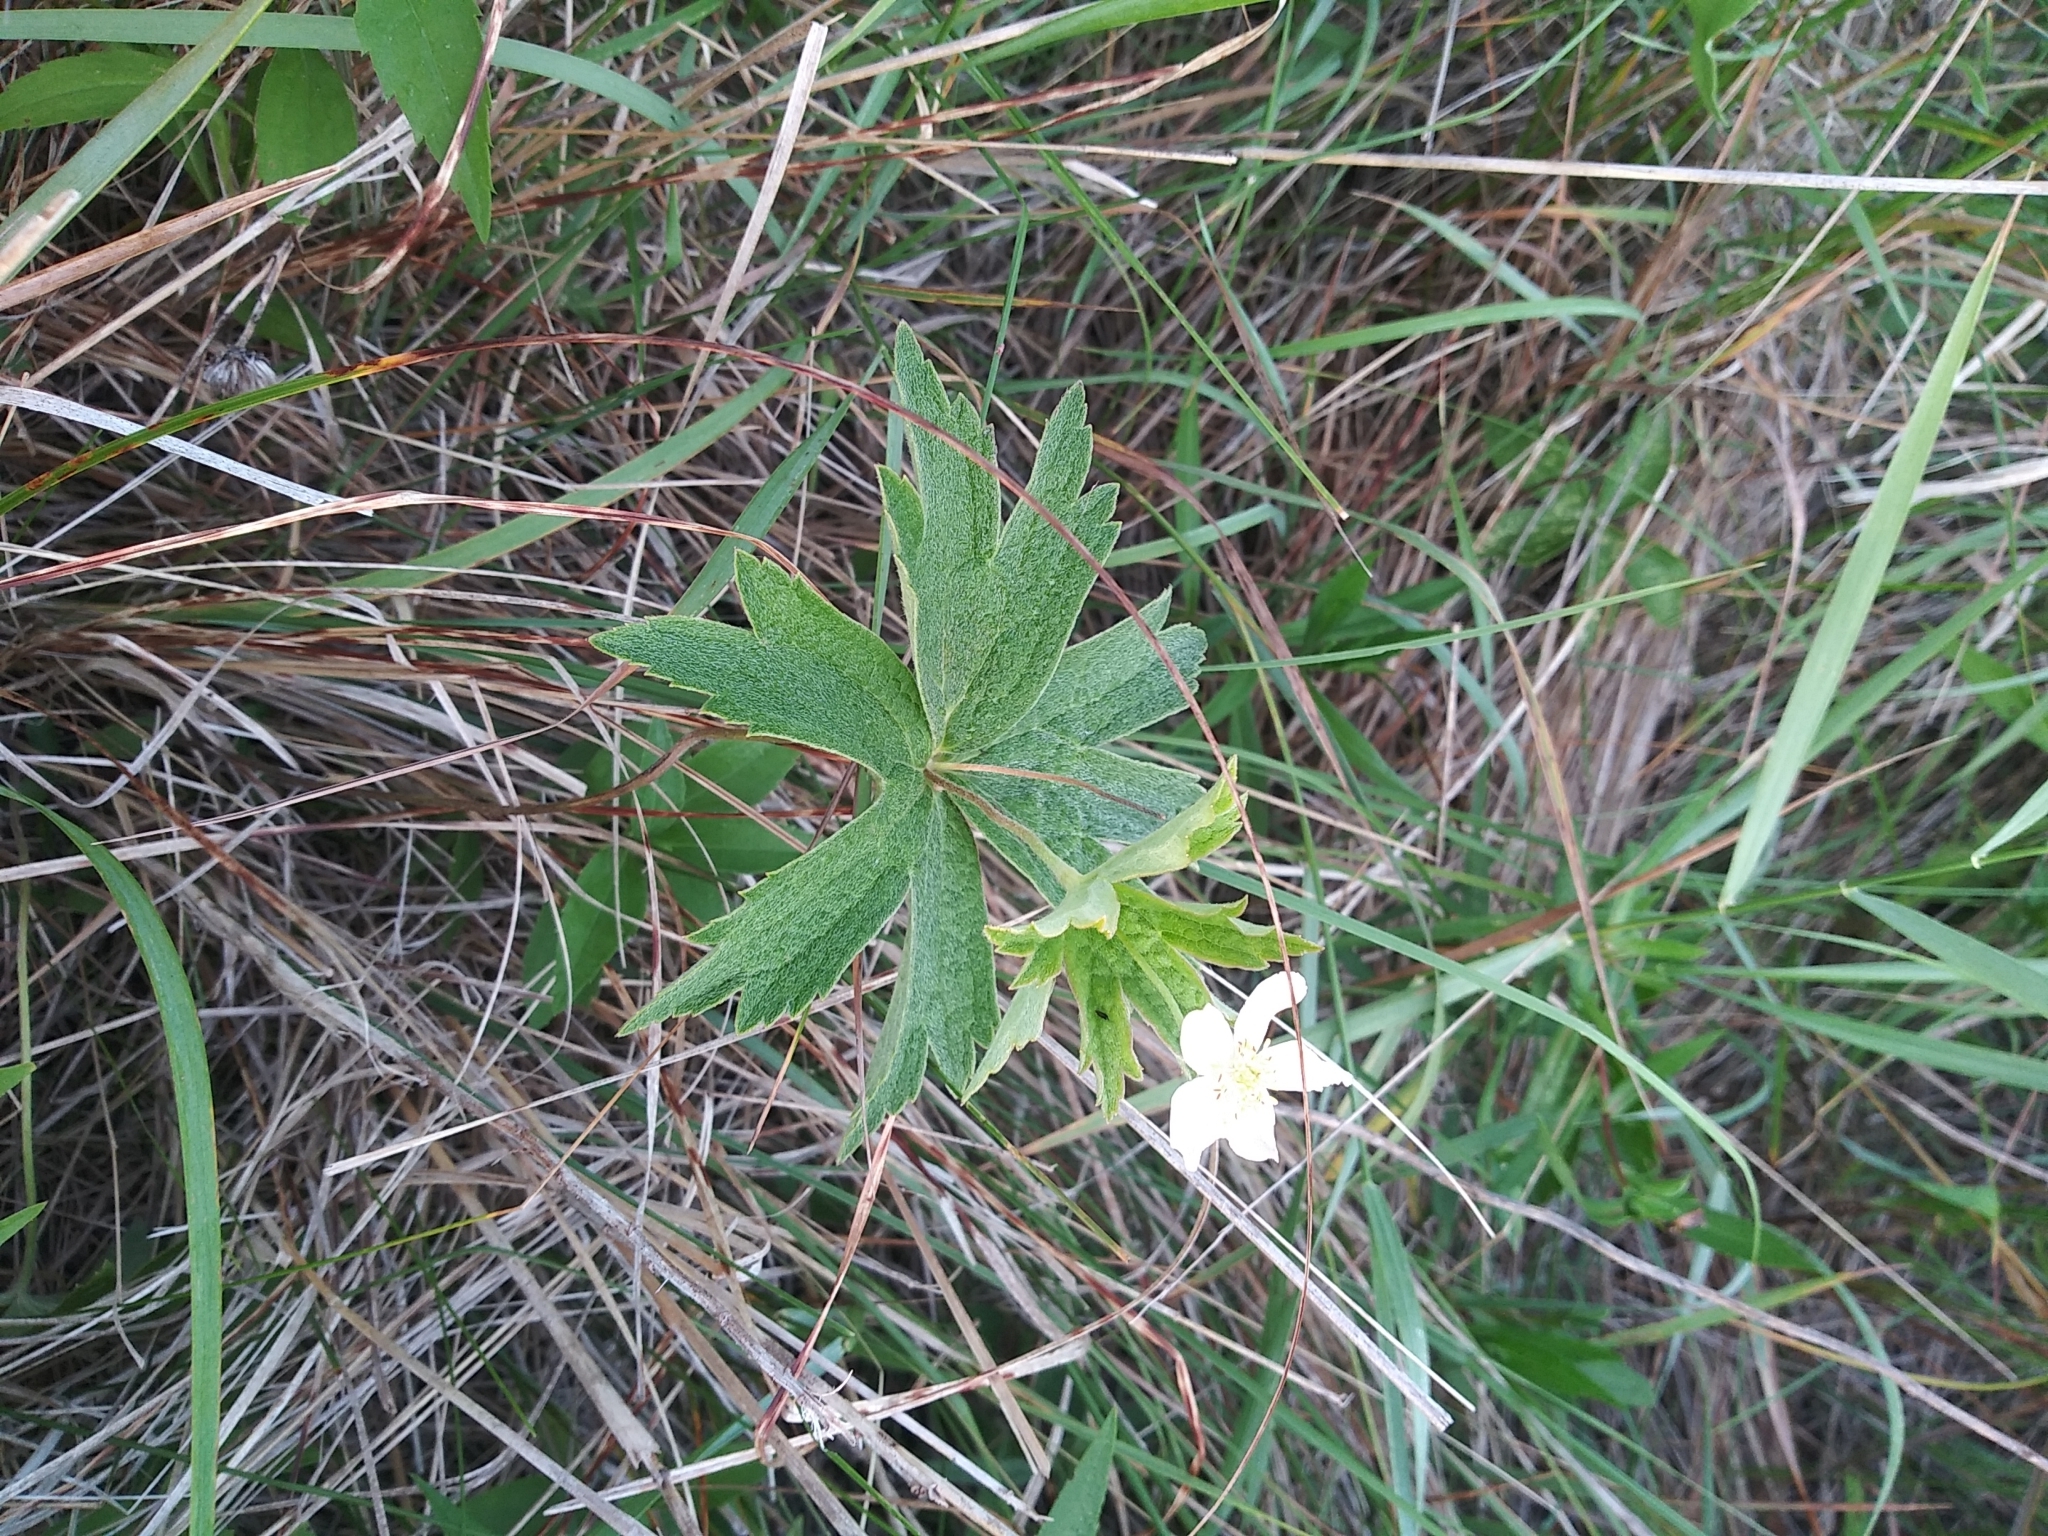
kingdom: Plantae
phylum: Tracheophyta
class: Magnoliopsida
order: Ranunculales
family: Ranunculaceae
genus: Anemonastrum
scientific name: Anemonastrum canadense
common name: Canada anemone
